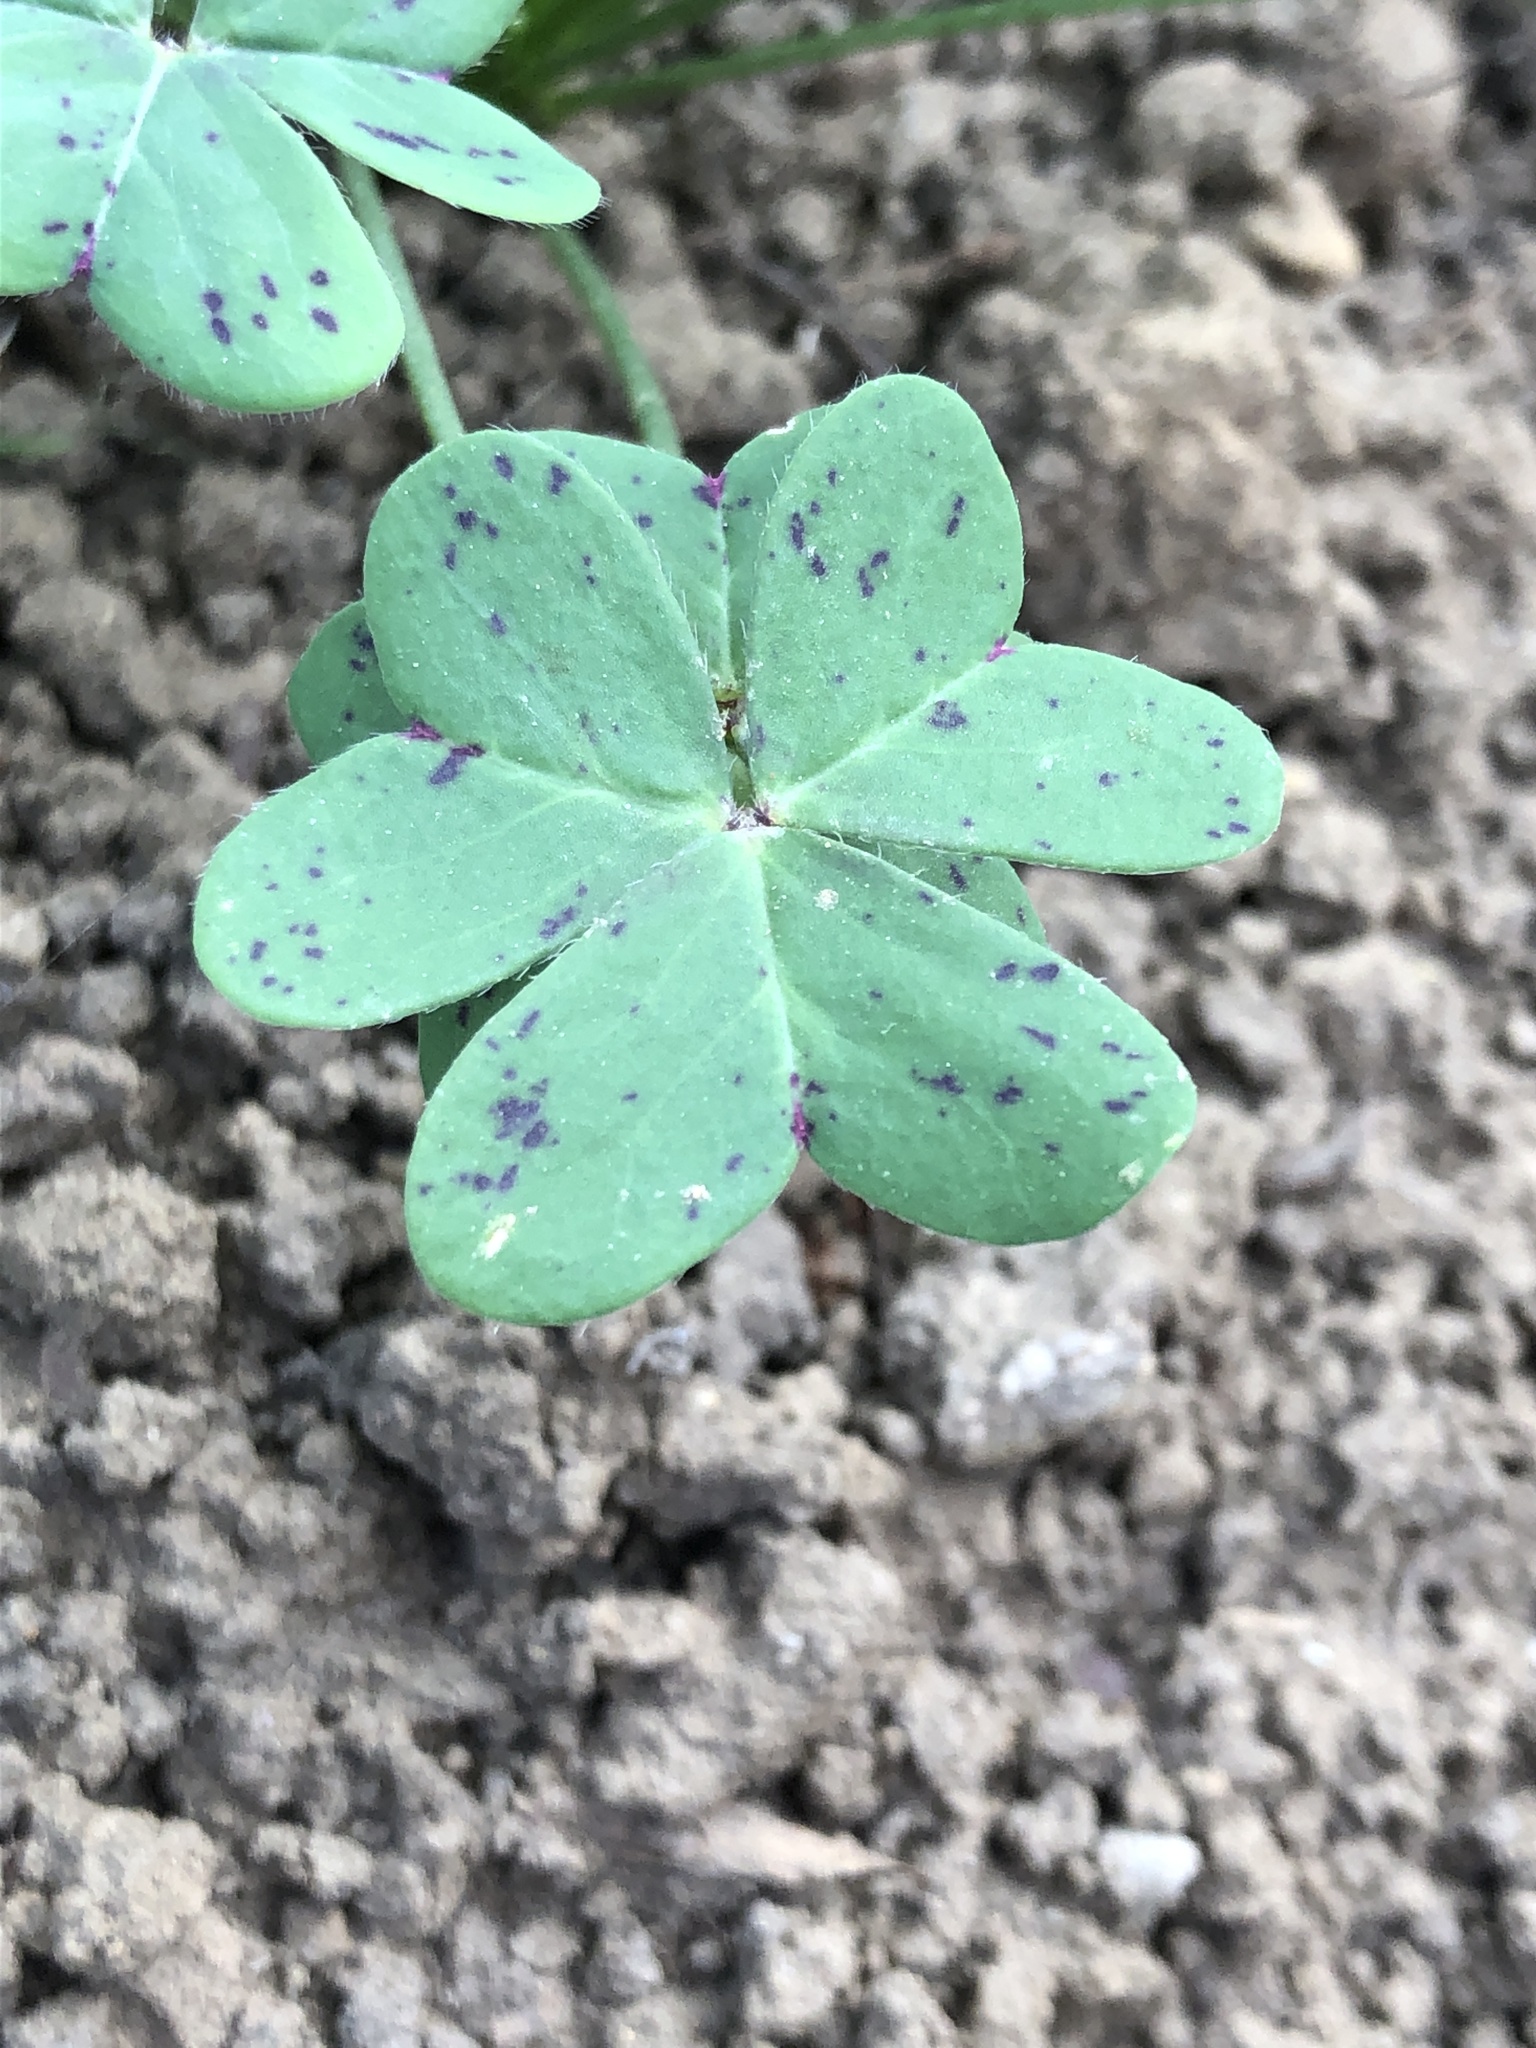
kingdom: Plantae
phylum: Tracheophyta
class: Magnoliopsida
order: Oxalidales
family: Oxalidaceae
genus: Oxalis
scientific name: Oxalis pes-caprae
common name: Bermuda-buttercup
